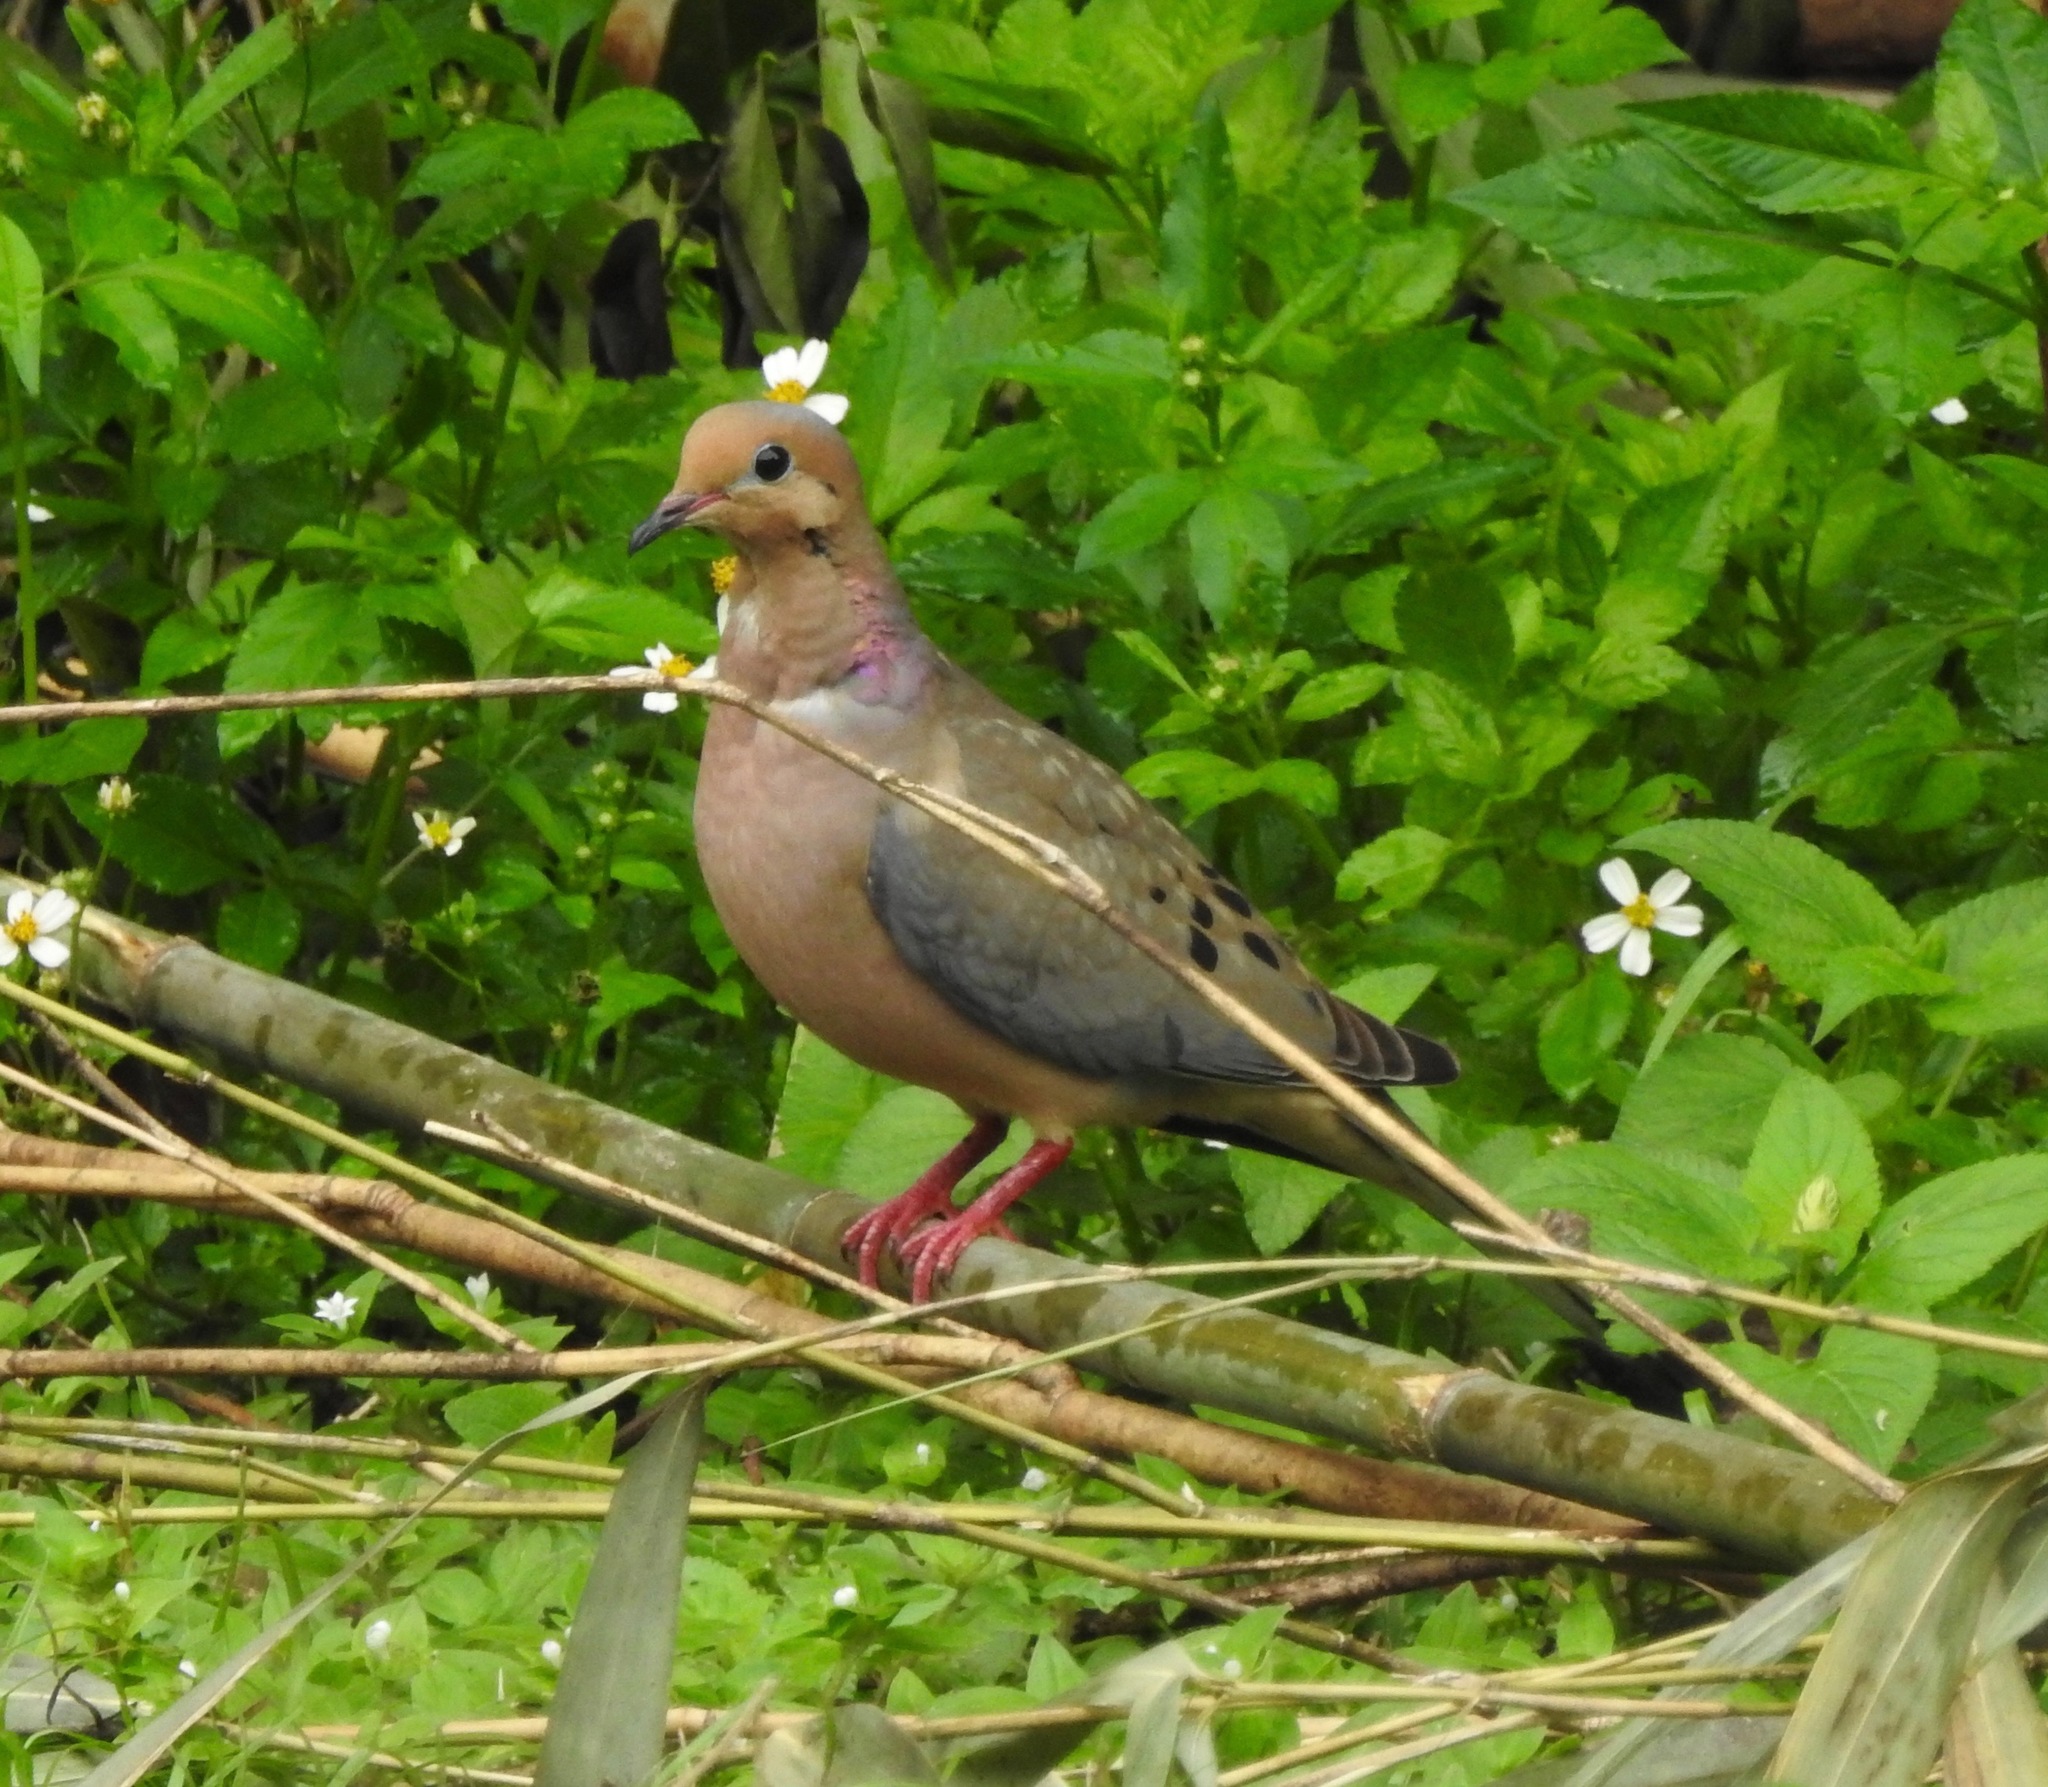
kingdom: Animalia
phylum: Chordata
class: Aves
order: Columbiformes
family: Columbidae
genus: Zenaida
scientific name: Zenaida macroura
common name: Mourning dove
